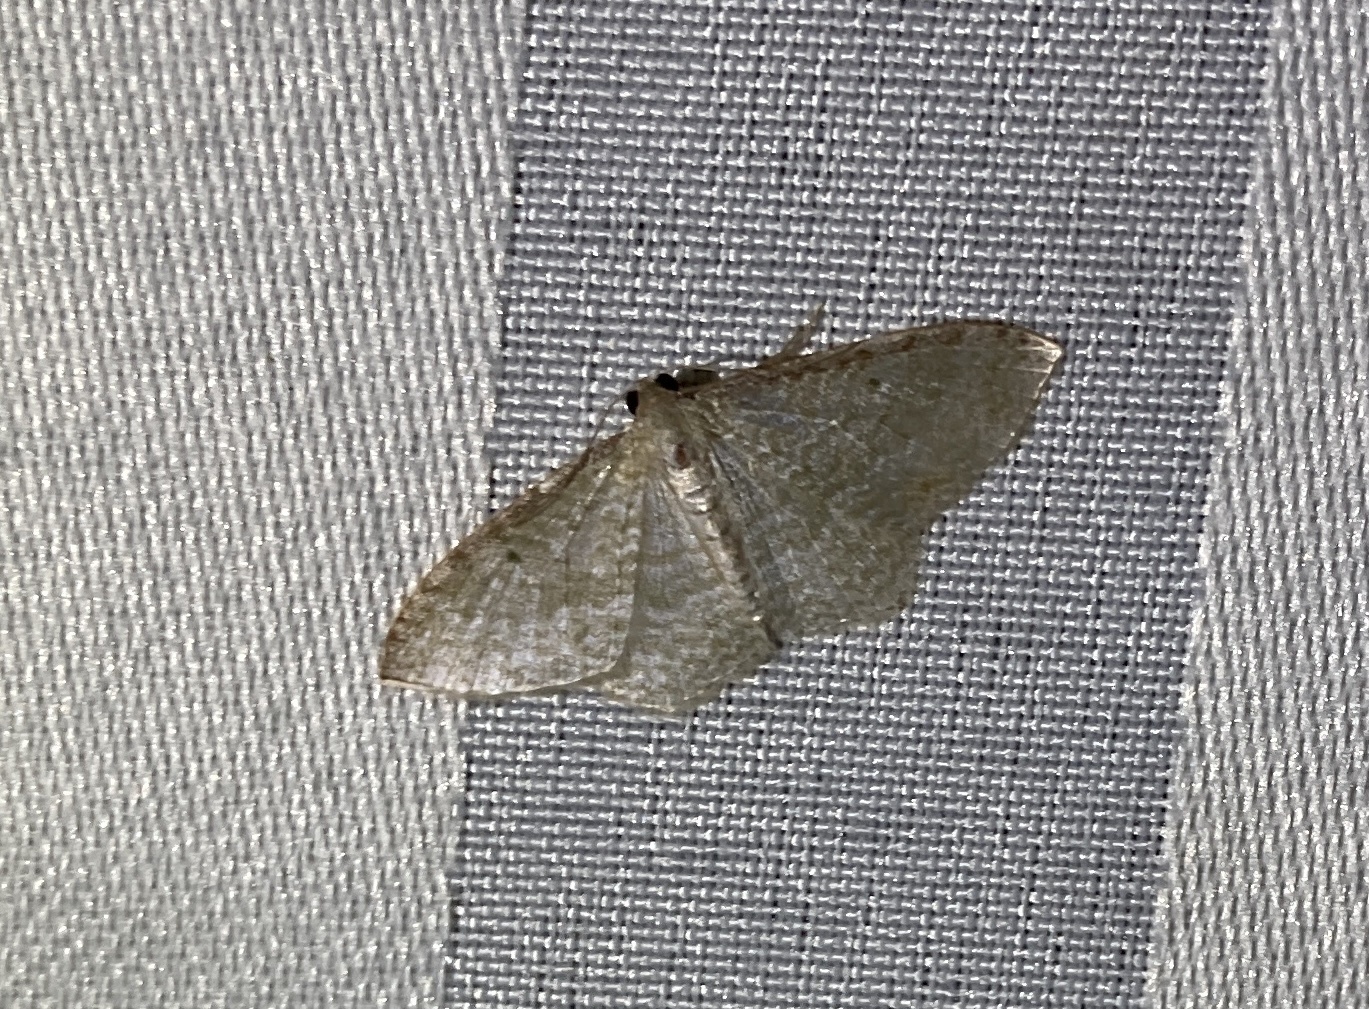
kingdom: Animalia
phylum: Arthropoda
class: Insecta
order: Lepidoptera
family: Geometridae
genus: Poecilasthena
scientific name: Poecilasthena pulchraria
